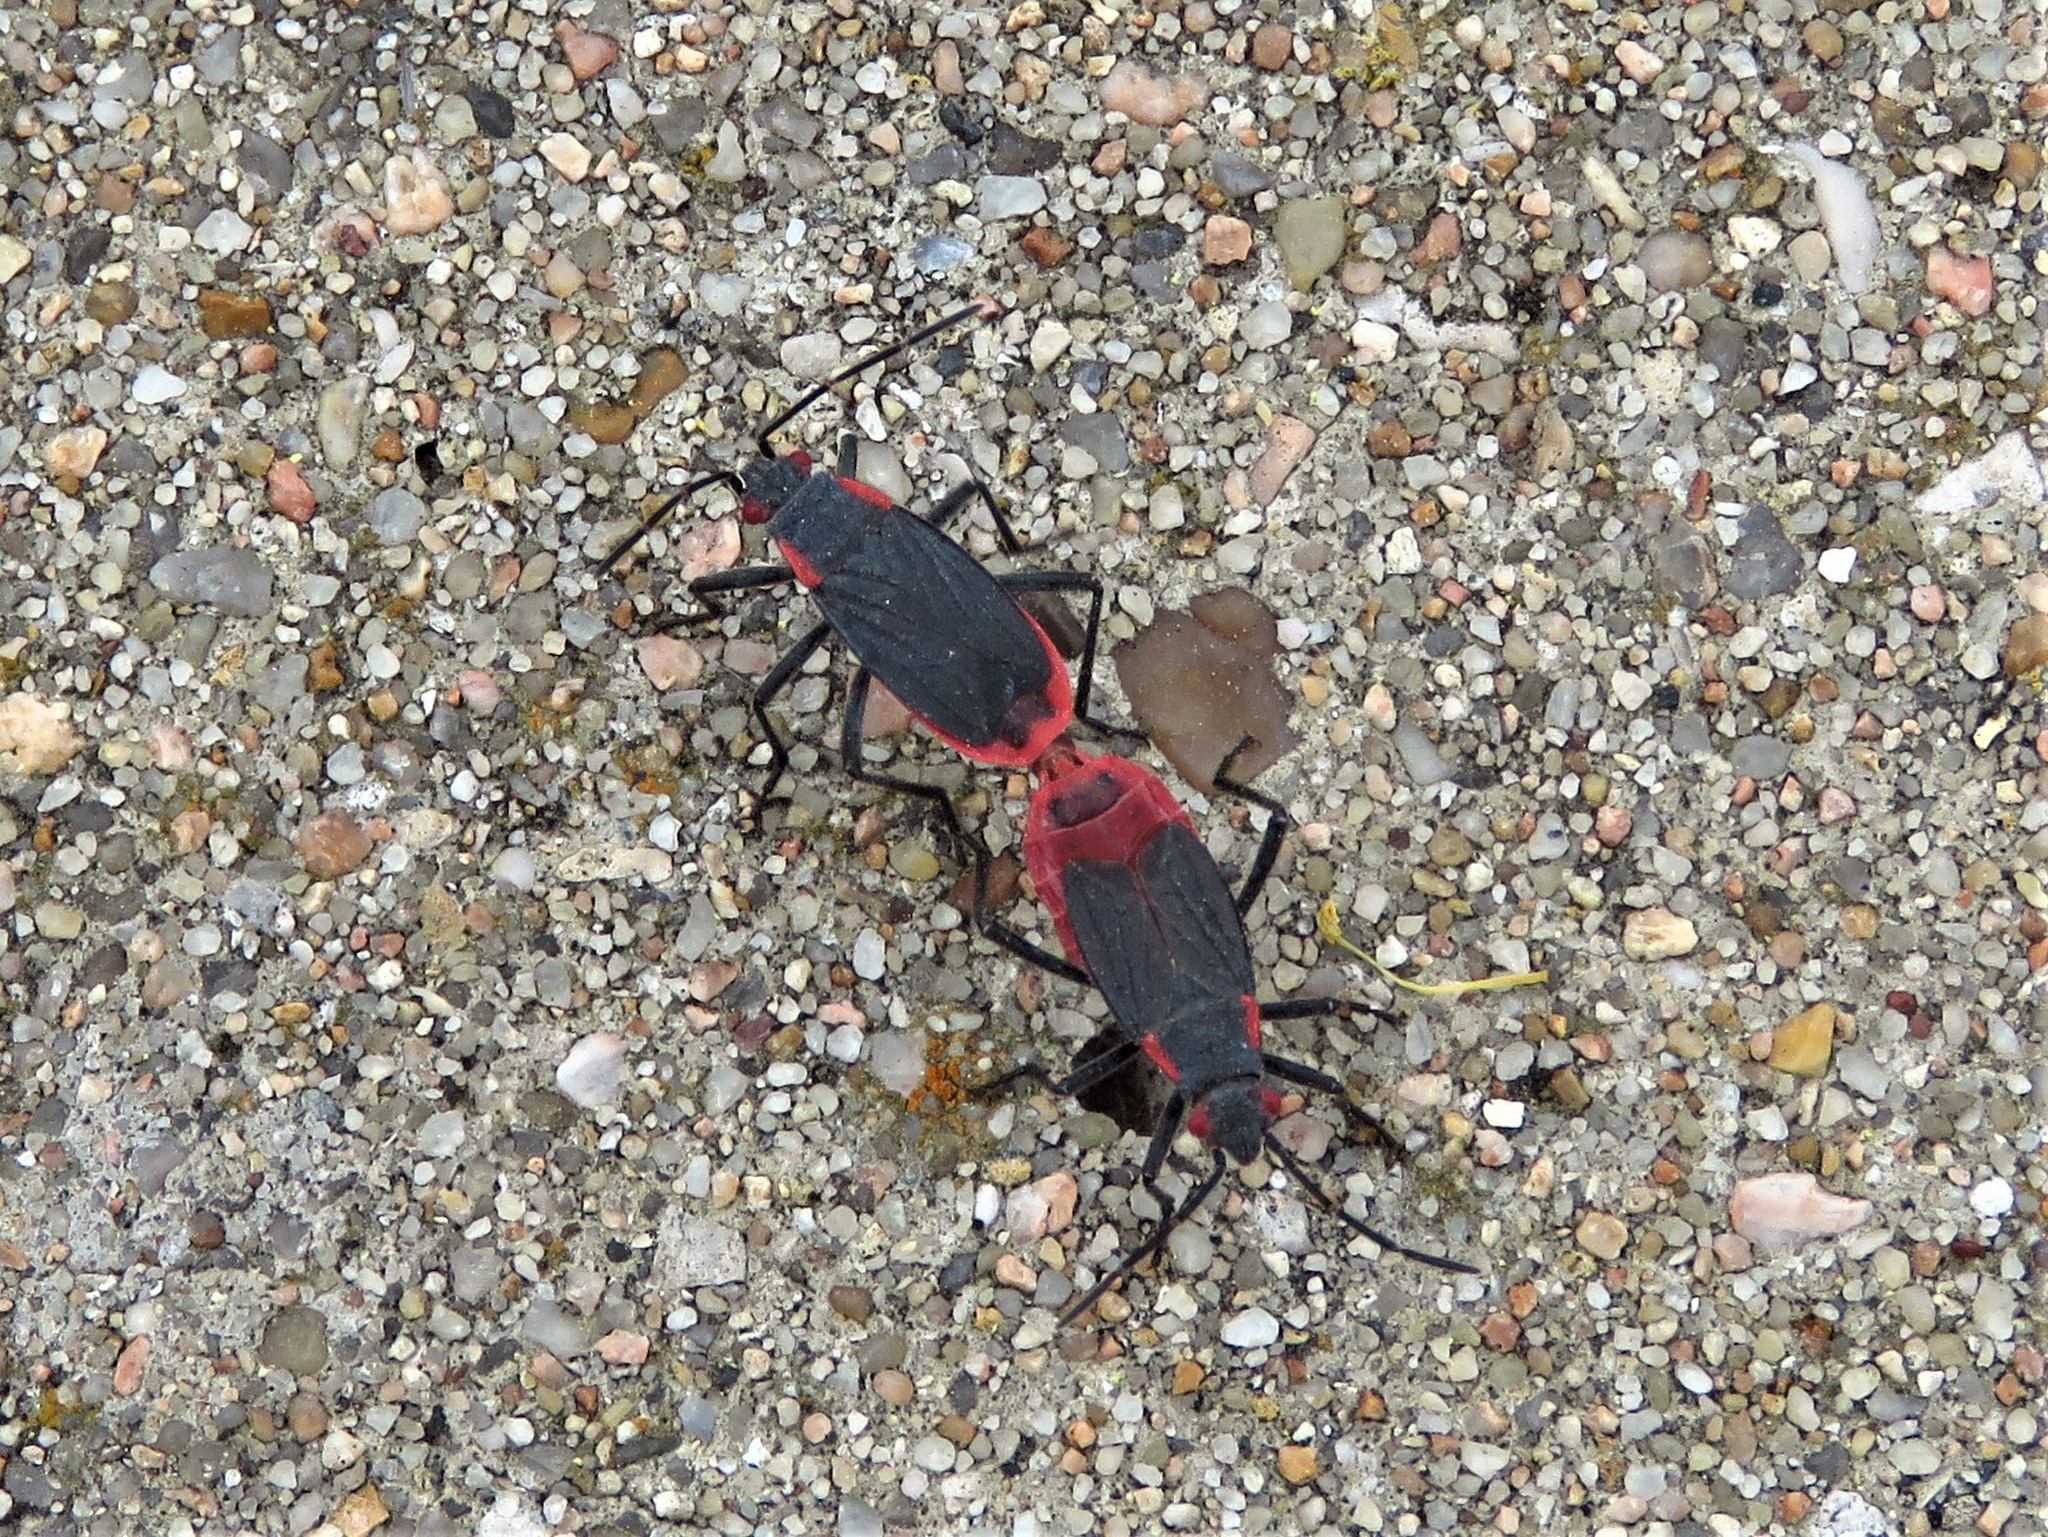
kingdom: Animalia
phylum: Arthropoda
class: Insecta
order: Hemiptera
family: Rhopalidae
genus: Jadera
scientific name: Jadera haematoloma
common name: Red-shouldered bug
